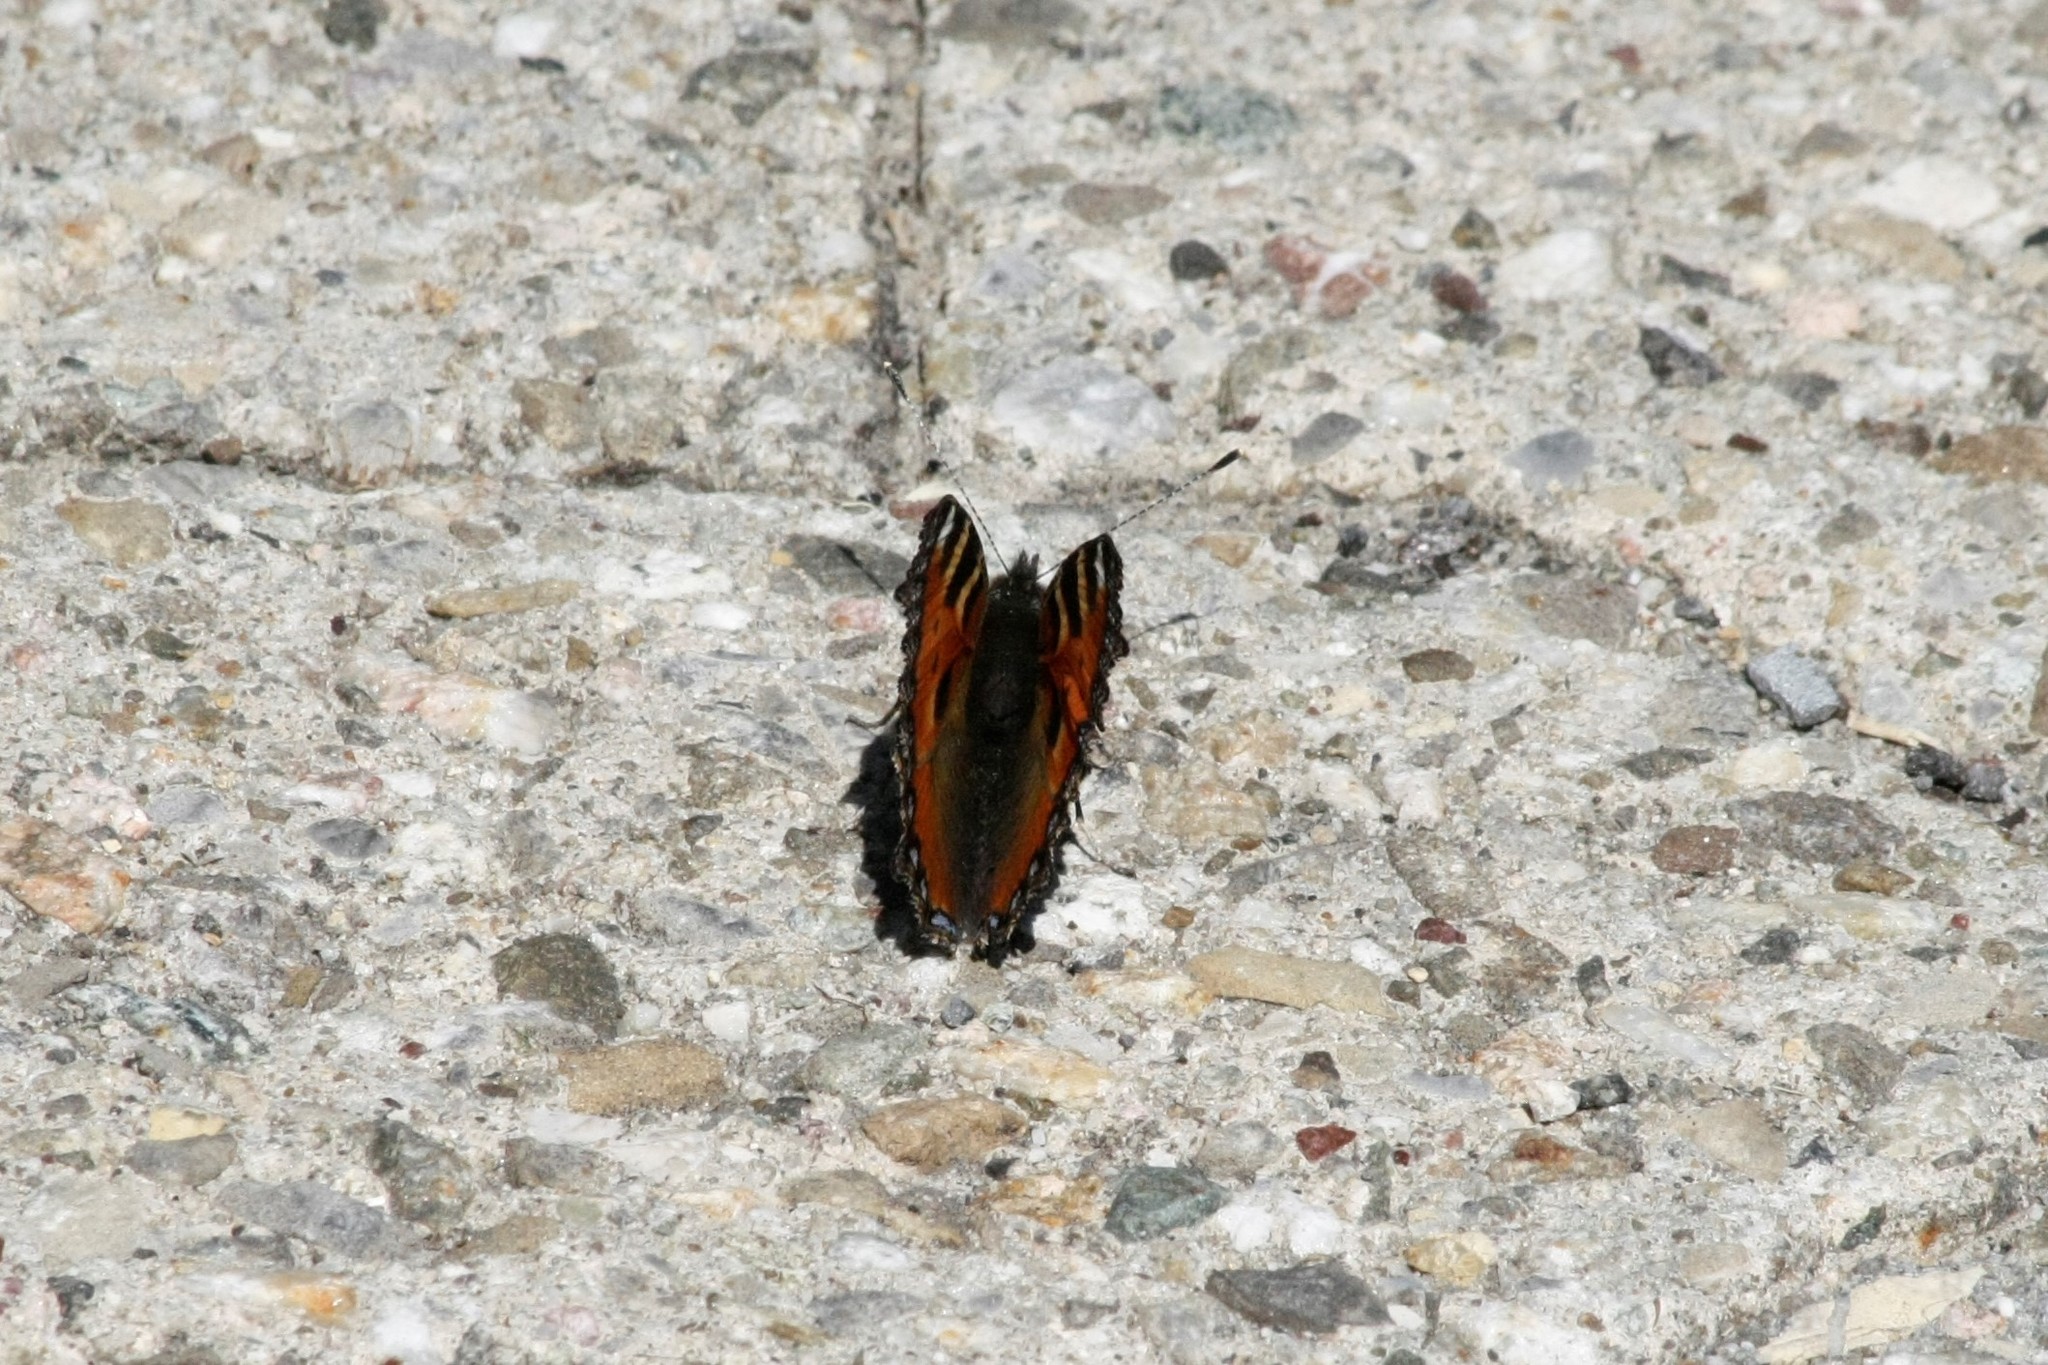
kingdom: Animalia
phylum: Arthropoda
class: Insecta
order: Lepidoptera
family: Nymphalidae
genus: Aglais
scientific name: Aglais urticae
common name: Small tortoiseshell
